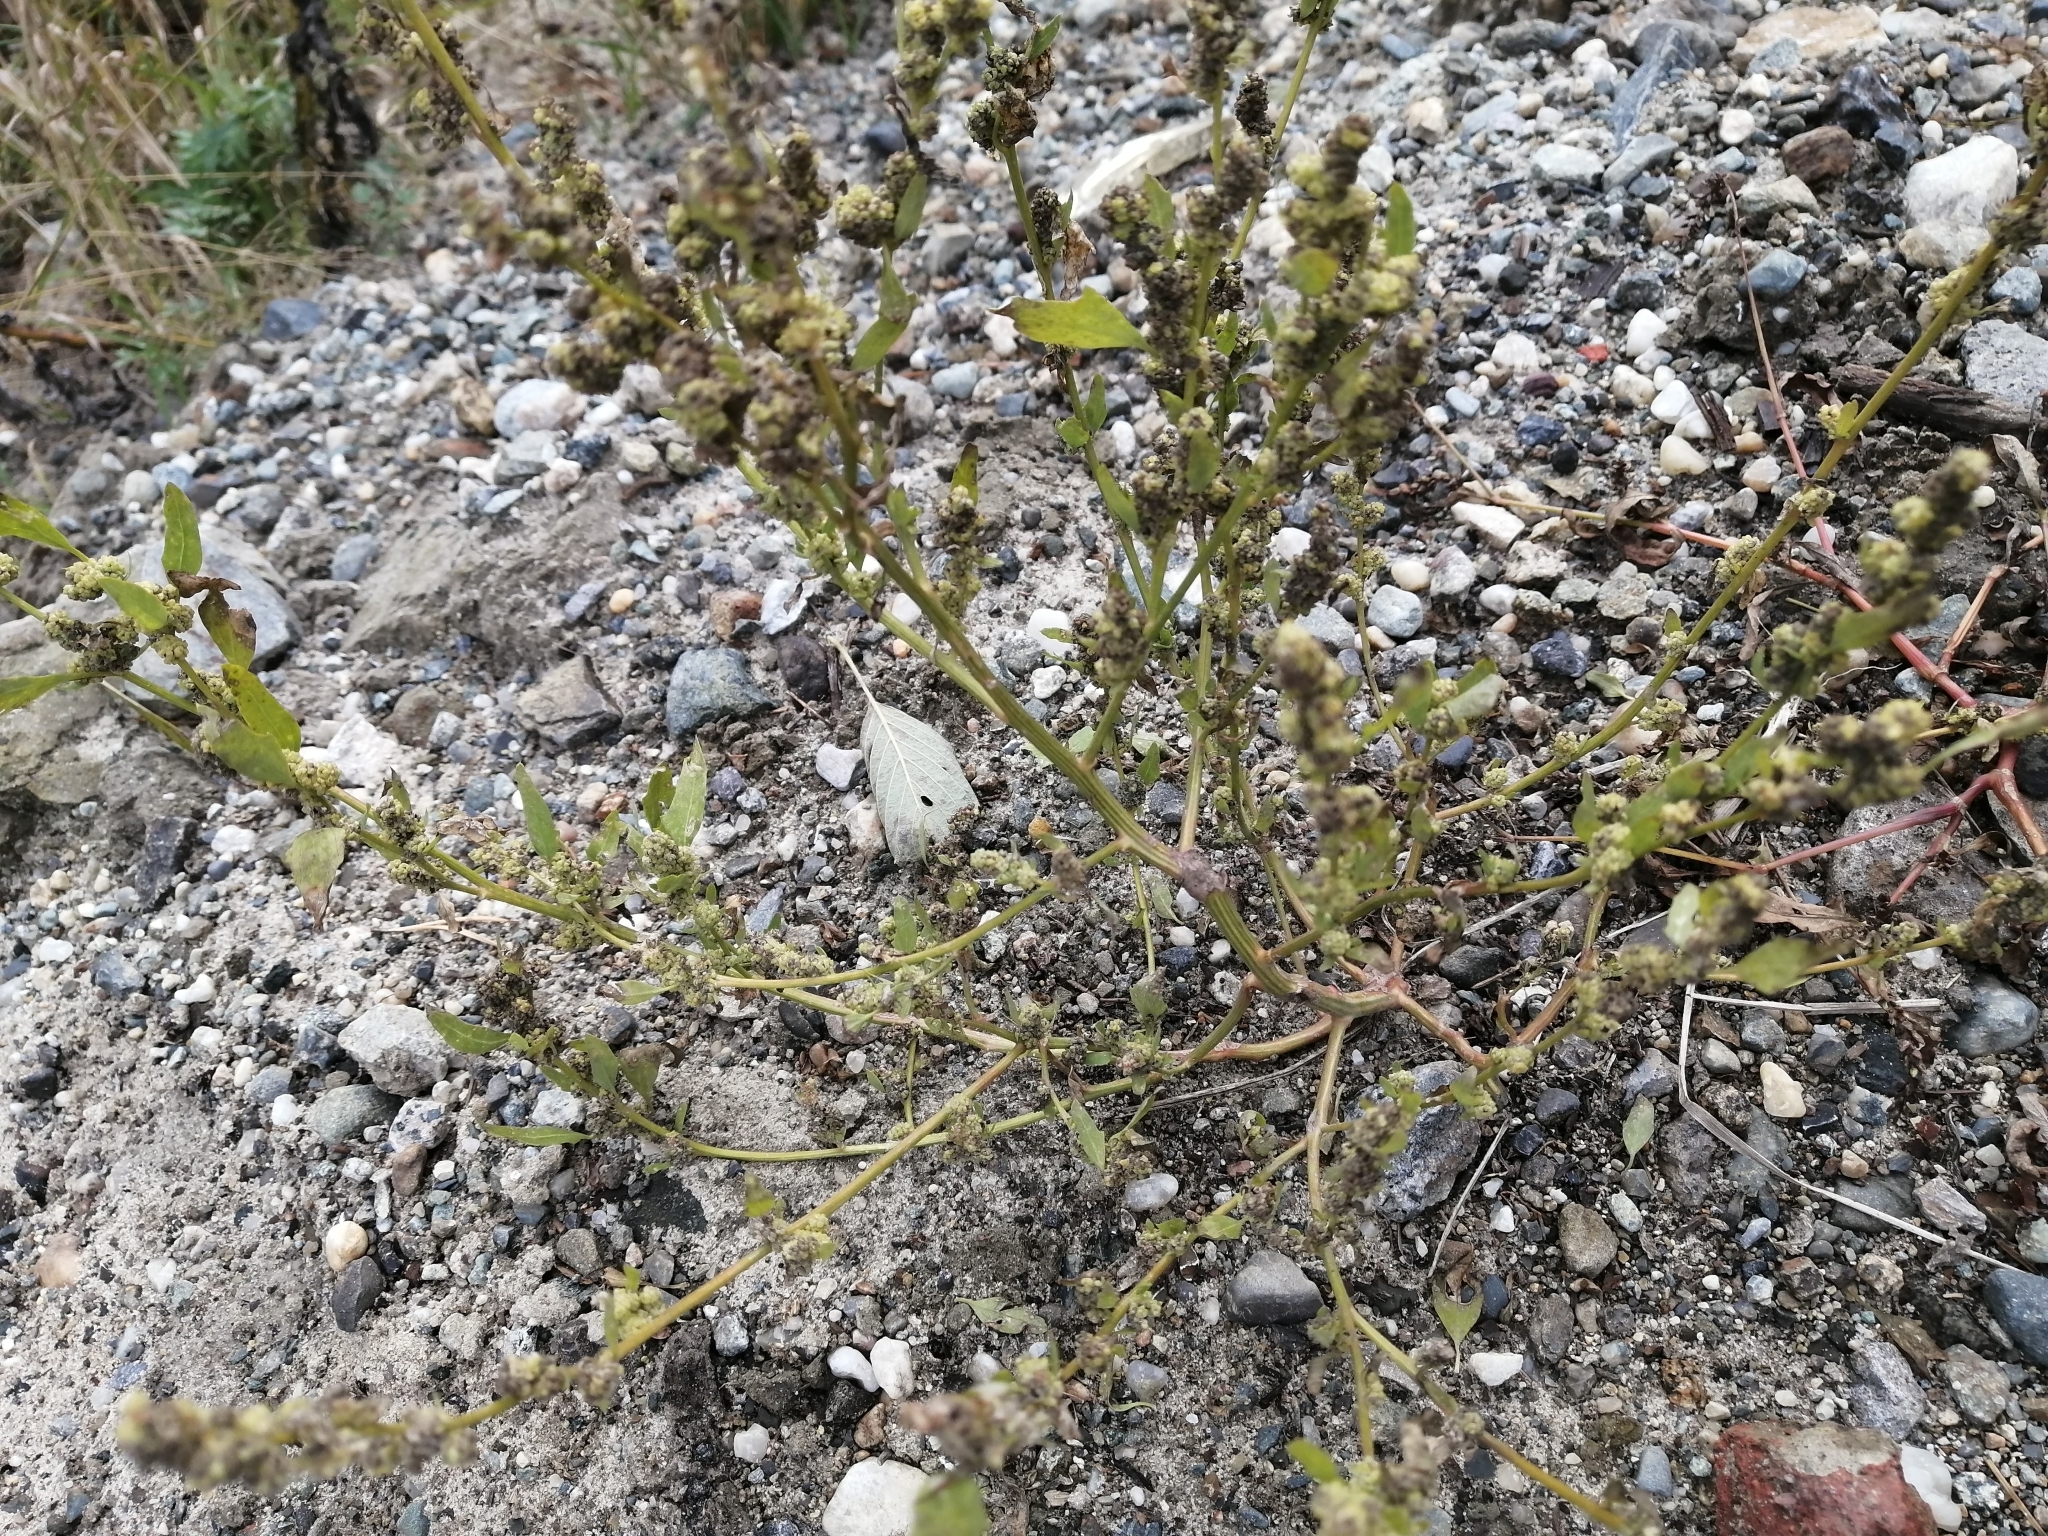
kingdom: Plantae
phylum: Tracheophyta
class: Magnoliopsida
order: Caryophyllales
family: Amaranthaceae
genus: Chenopodium
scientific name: Chenopodium album
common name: Fat-hen
